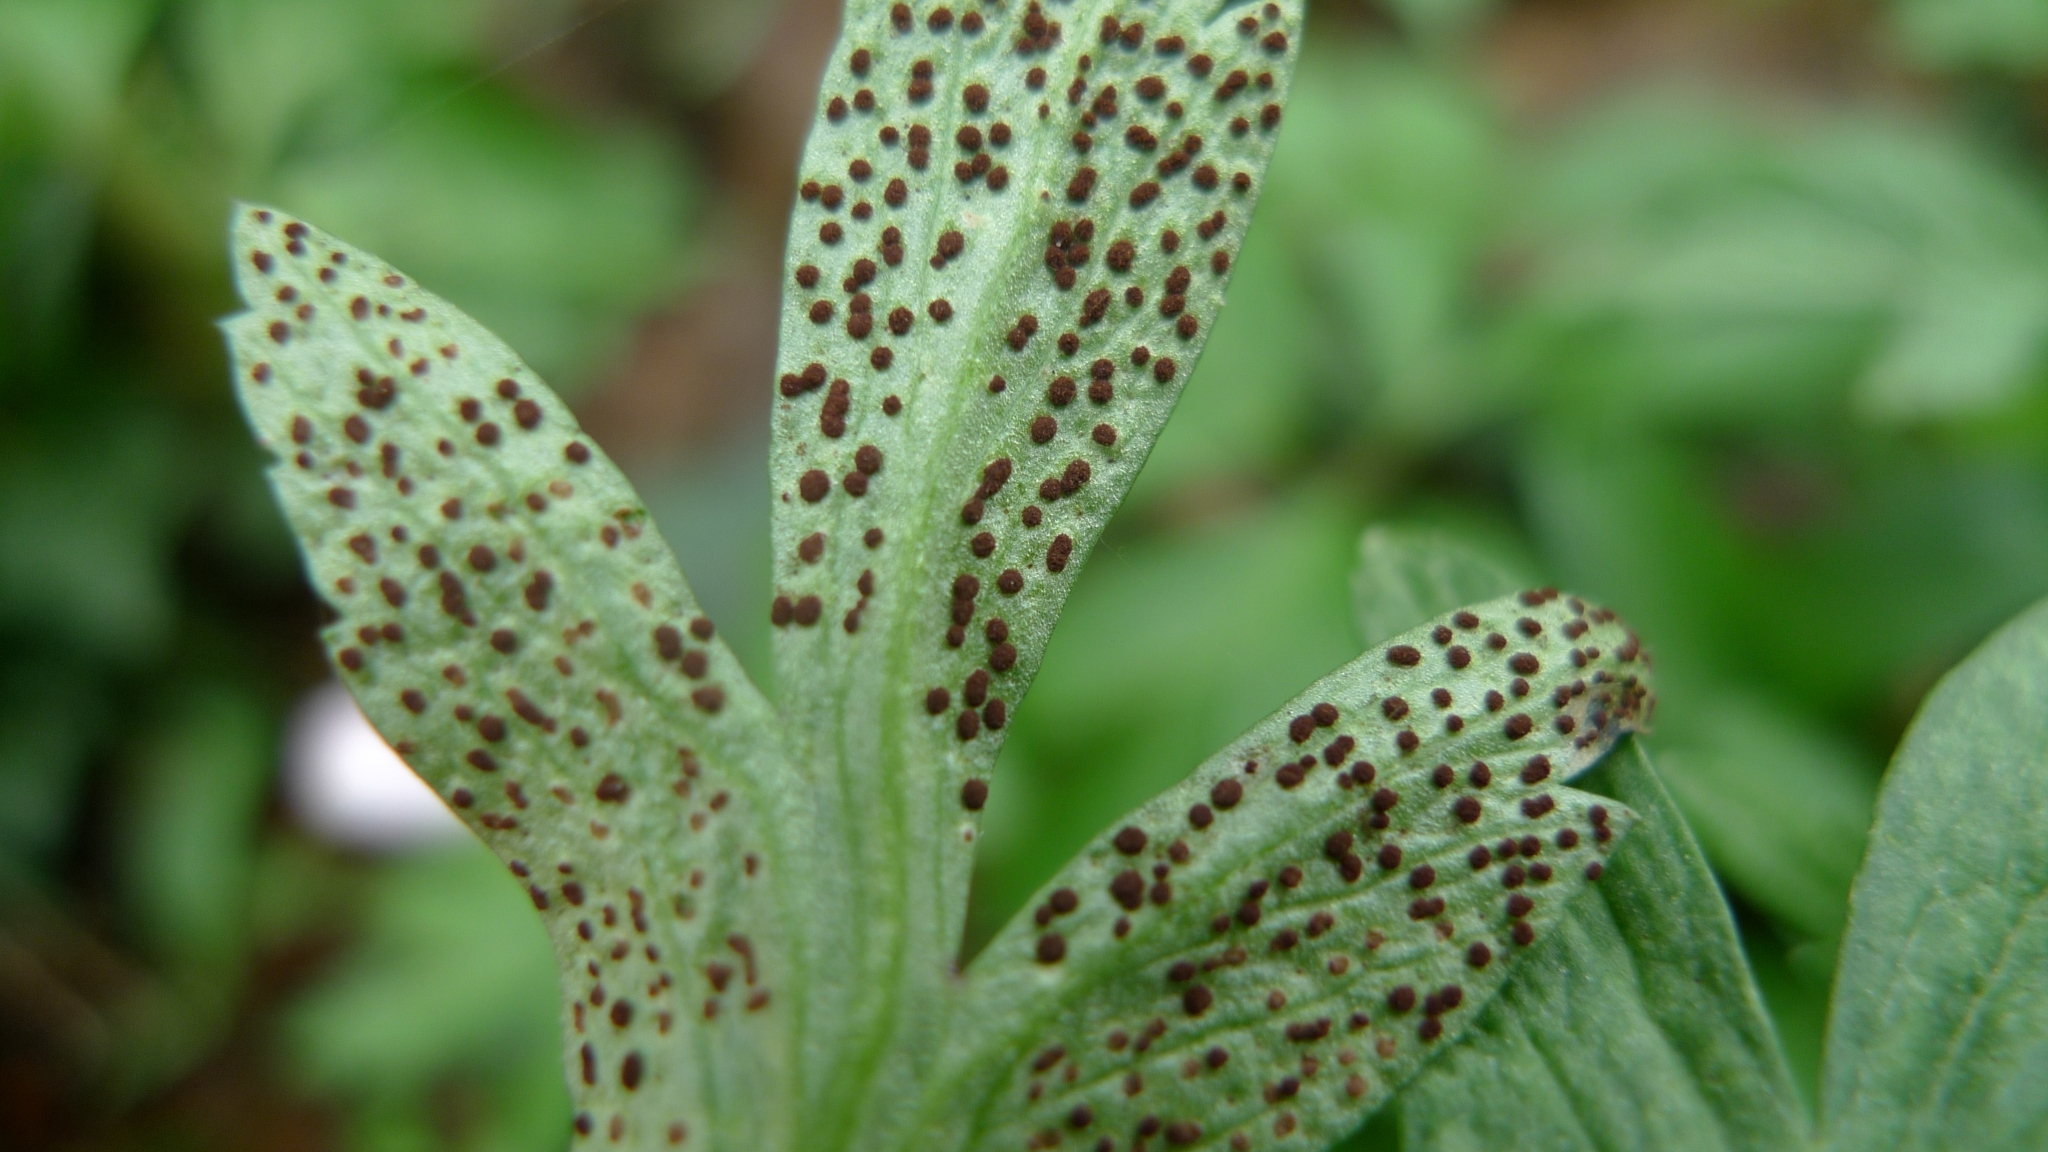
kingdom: Fungi
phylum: Basidiomycota
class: Pucciniomycetes
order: Pucciniales
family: Tranzscheliaceae
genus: Tranzschelia
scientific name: Tranzschelia anemones
